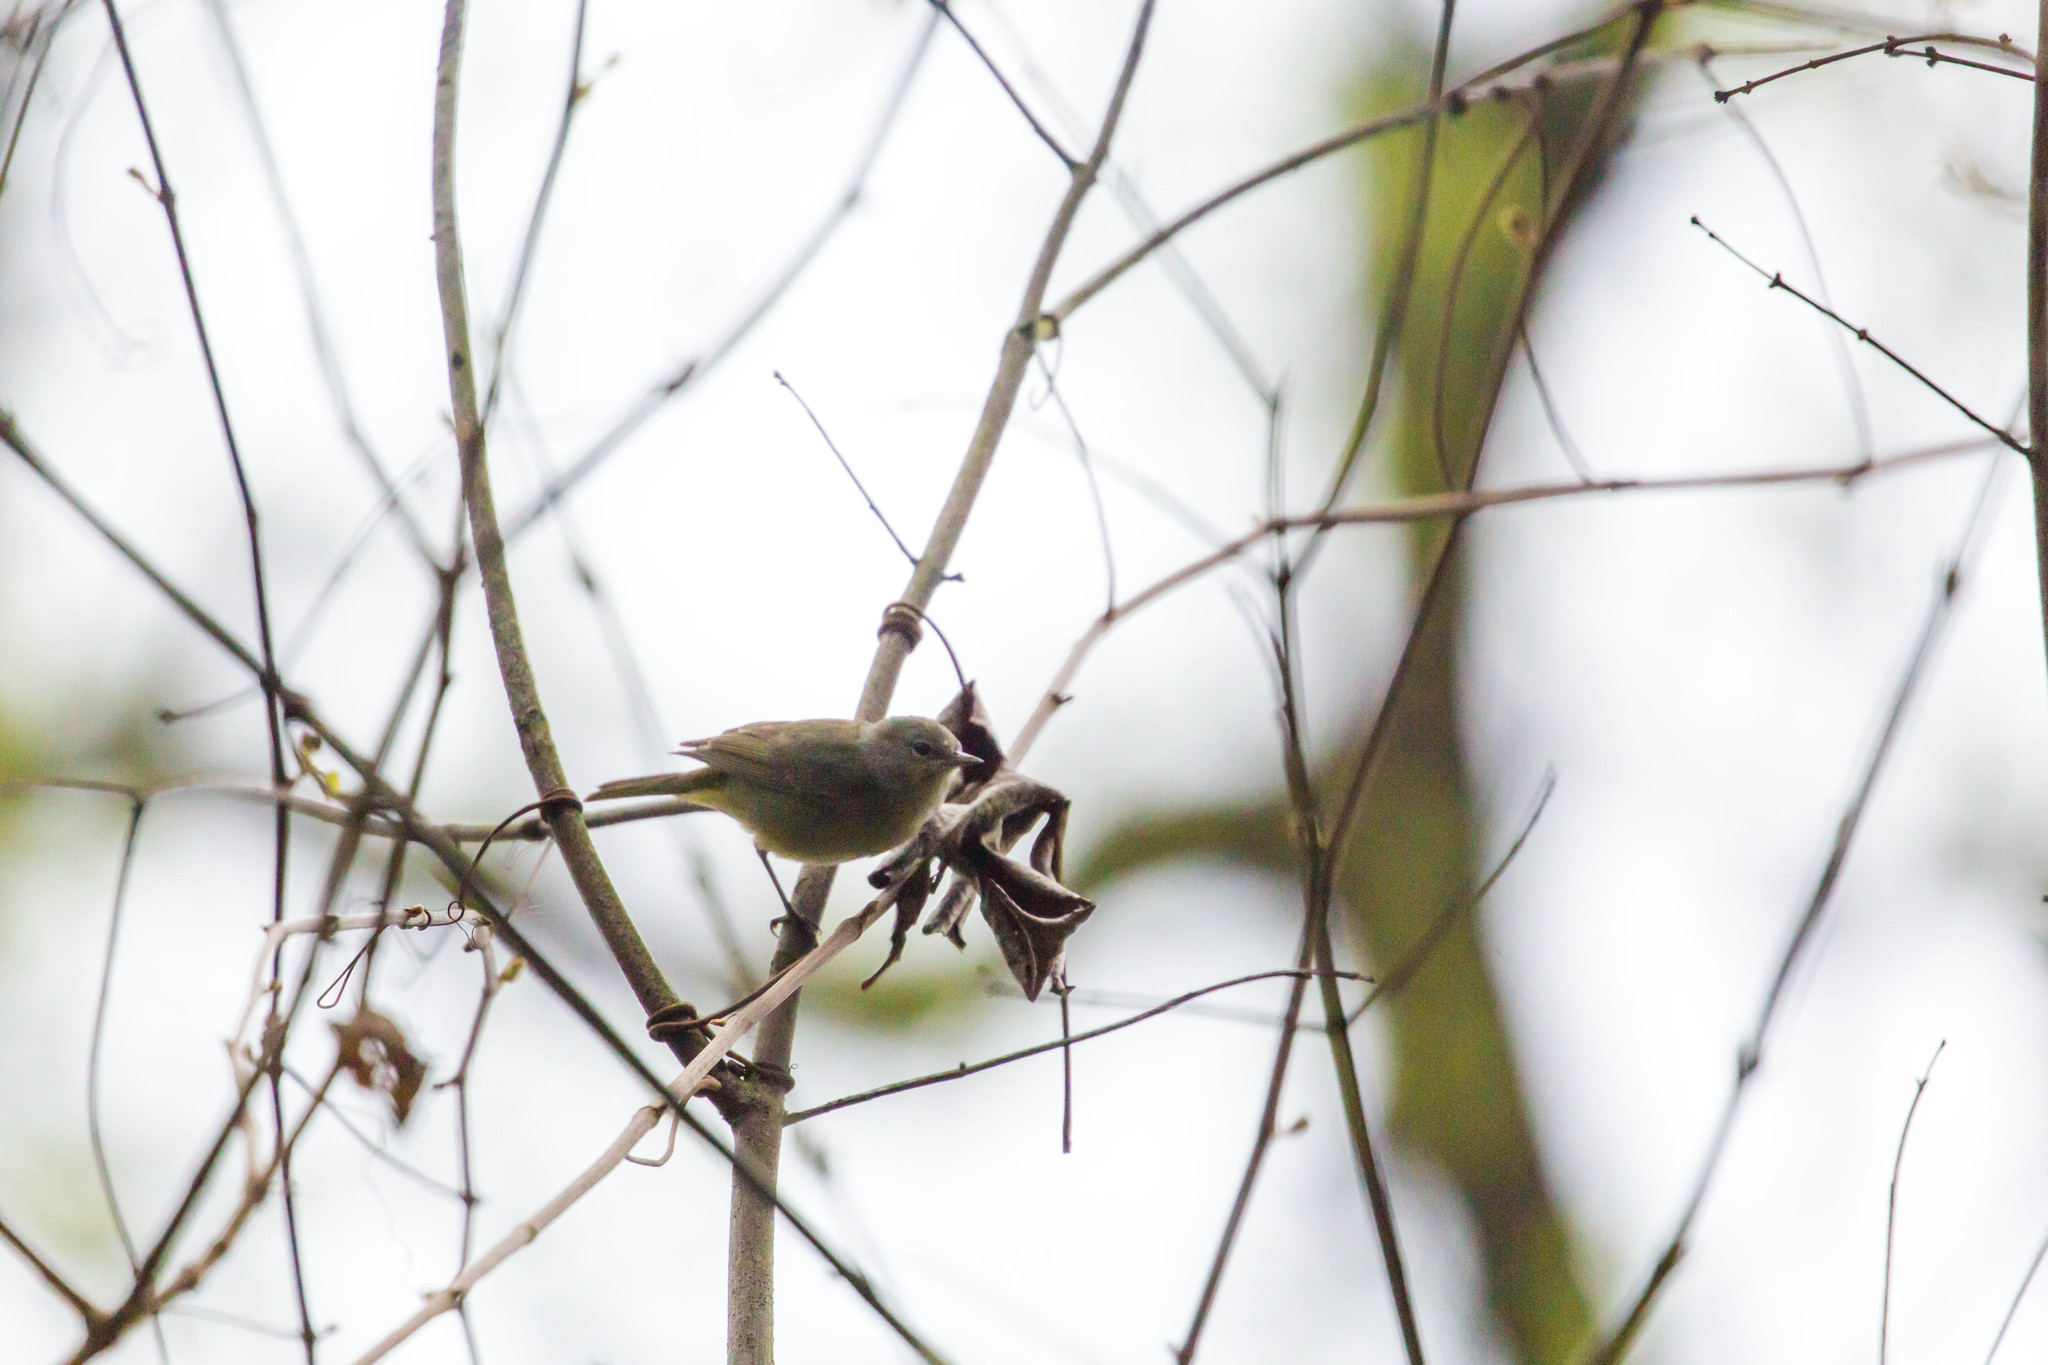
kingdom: Animalia
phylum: Chordata
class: Aves
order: Passeriformes
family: Parulidae
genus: Leiothlypis
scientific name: Leiothlypis celata
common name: Orange-crowned warbler
